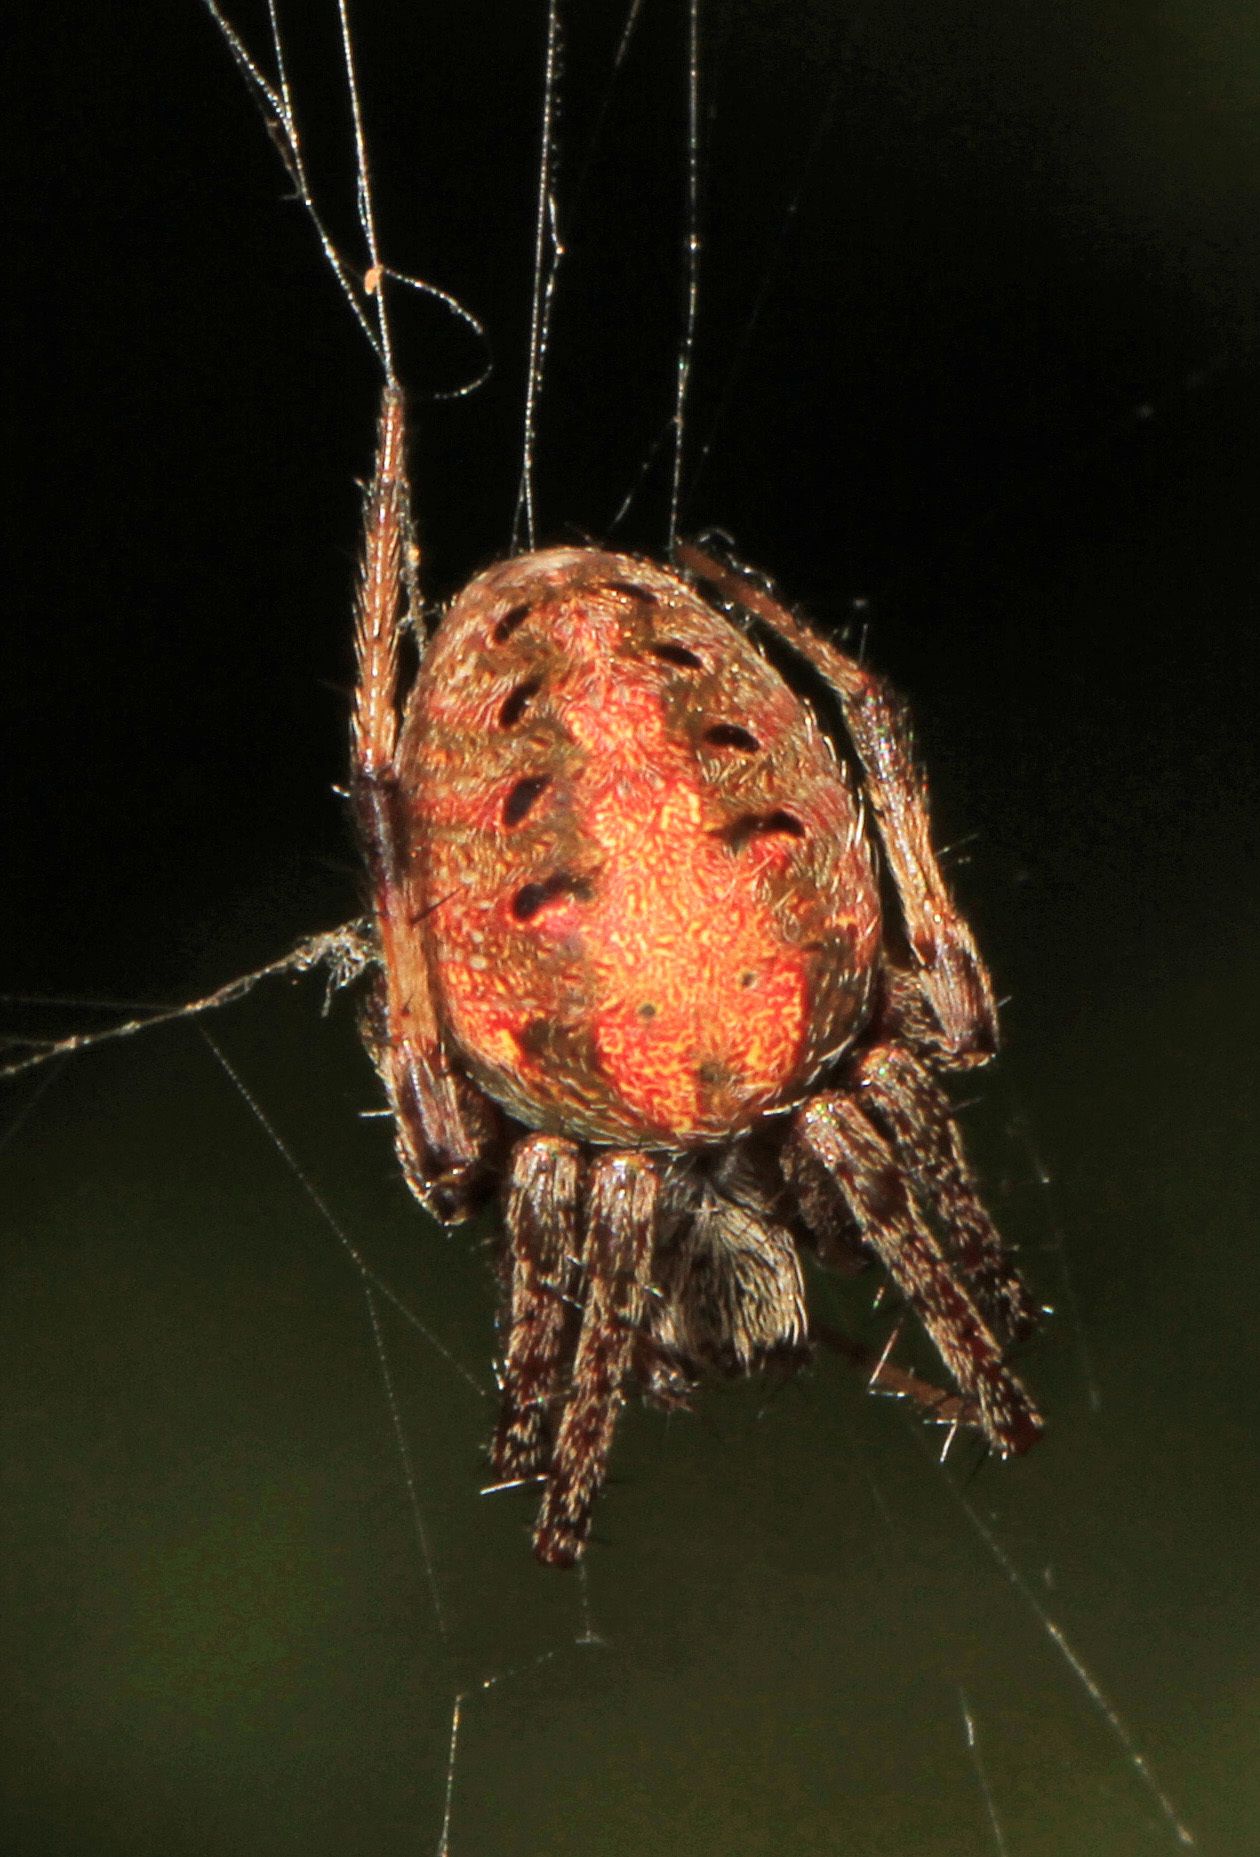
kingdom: Animalia
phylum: Arthropoda
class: Arachnida
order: Araneae
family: Araneidae
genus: Neoscona
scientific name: Neoscona arabesca
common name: Orb weavers
